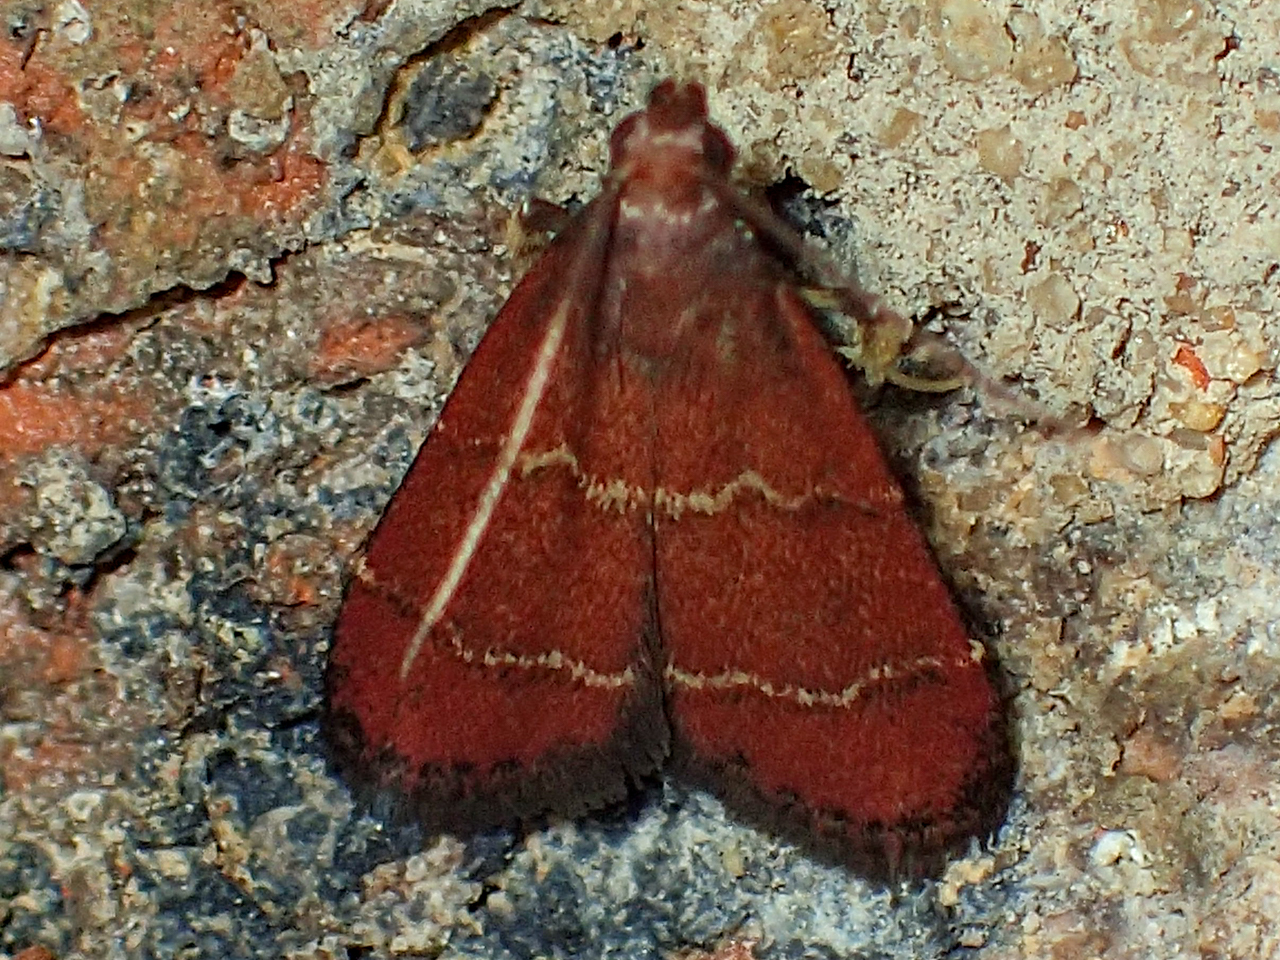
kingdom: Animalia
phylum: Arthropoda
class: Insecta
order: Lepidoptera
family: Pyralidae
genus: Arta
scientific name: Arta
